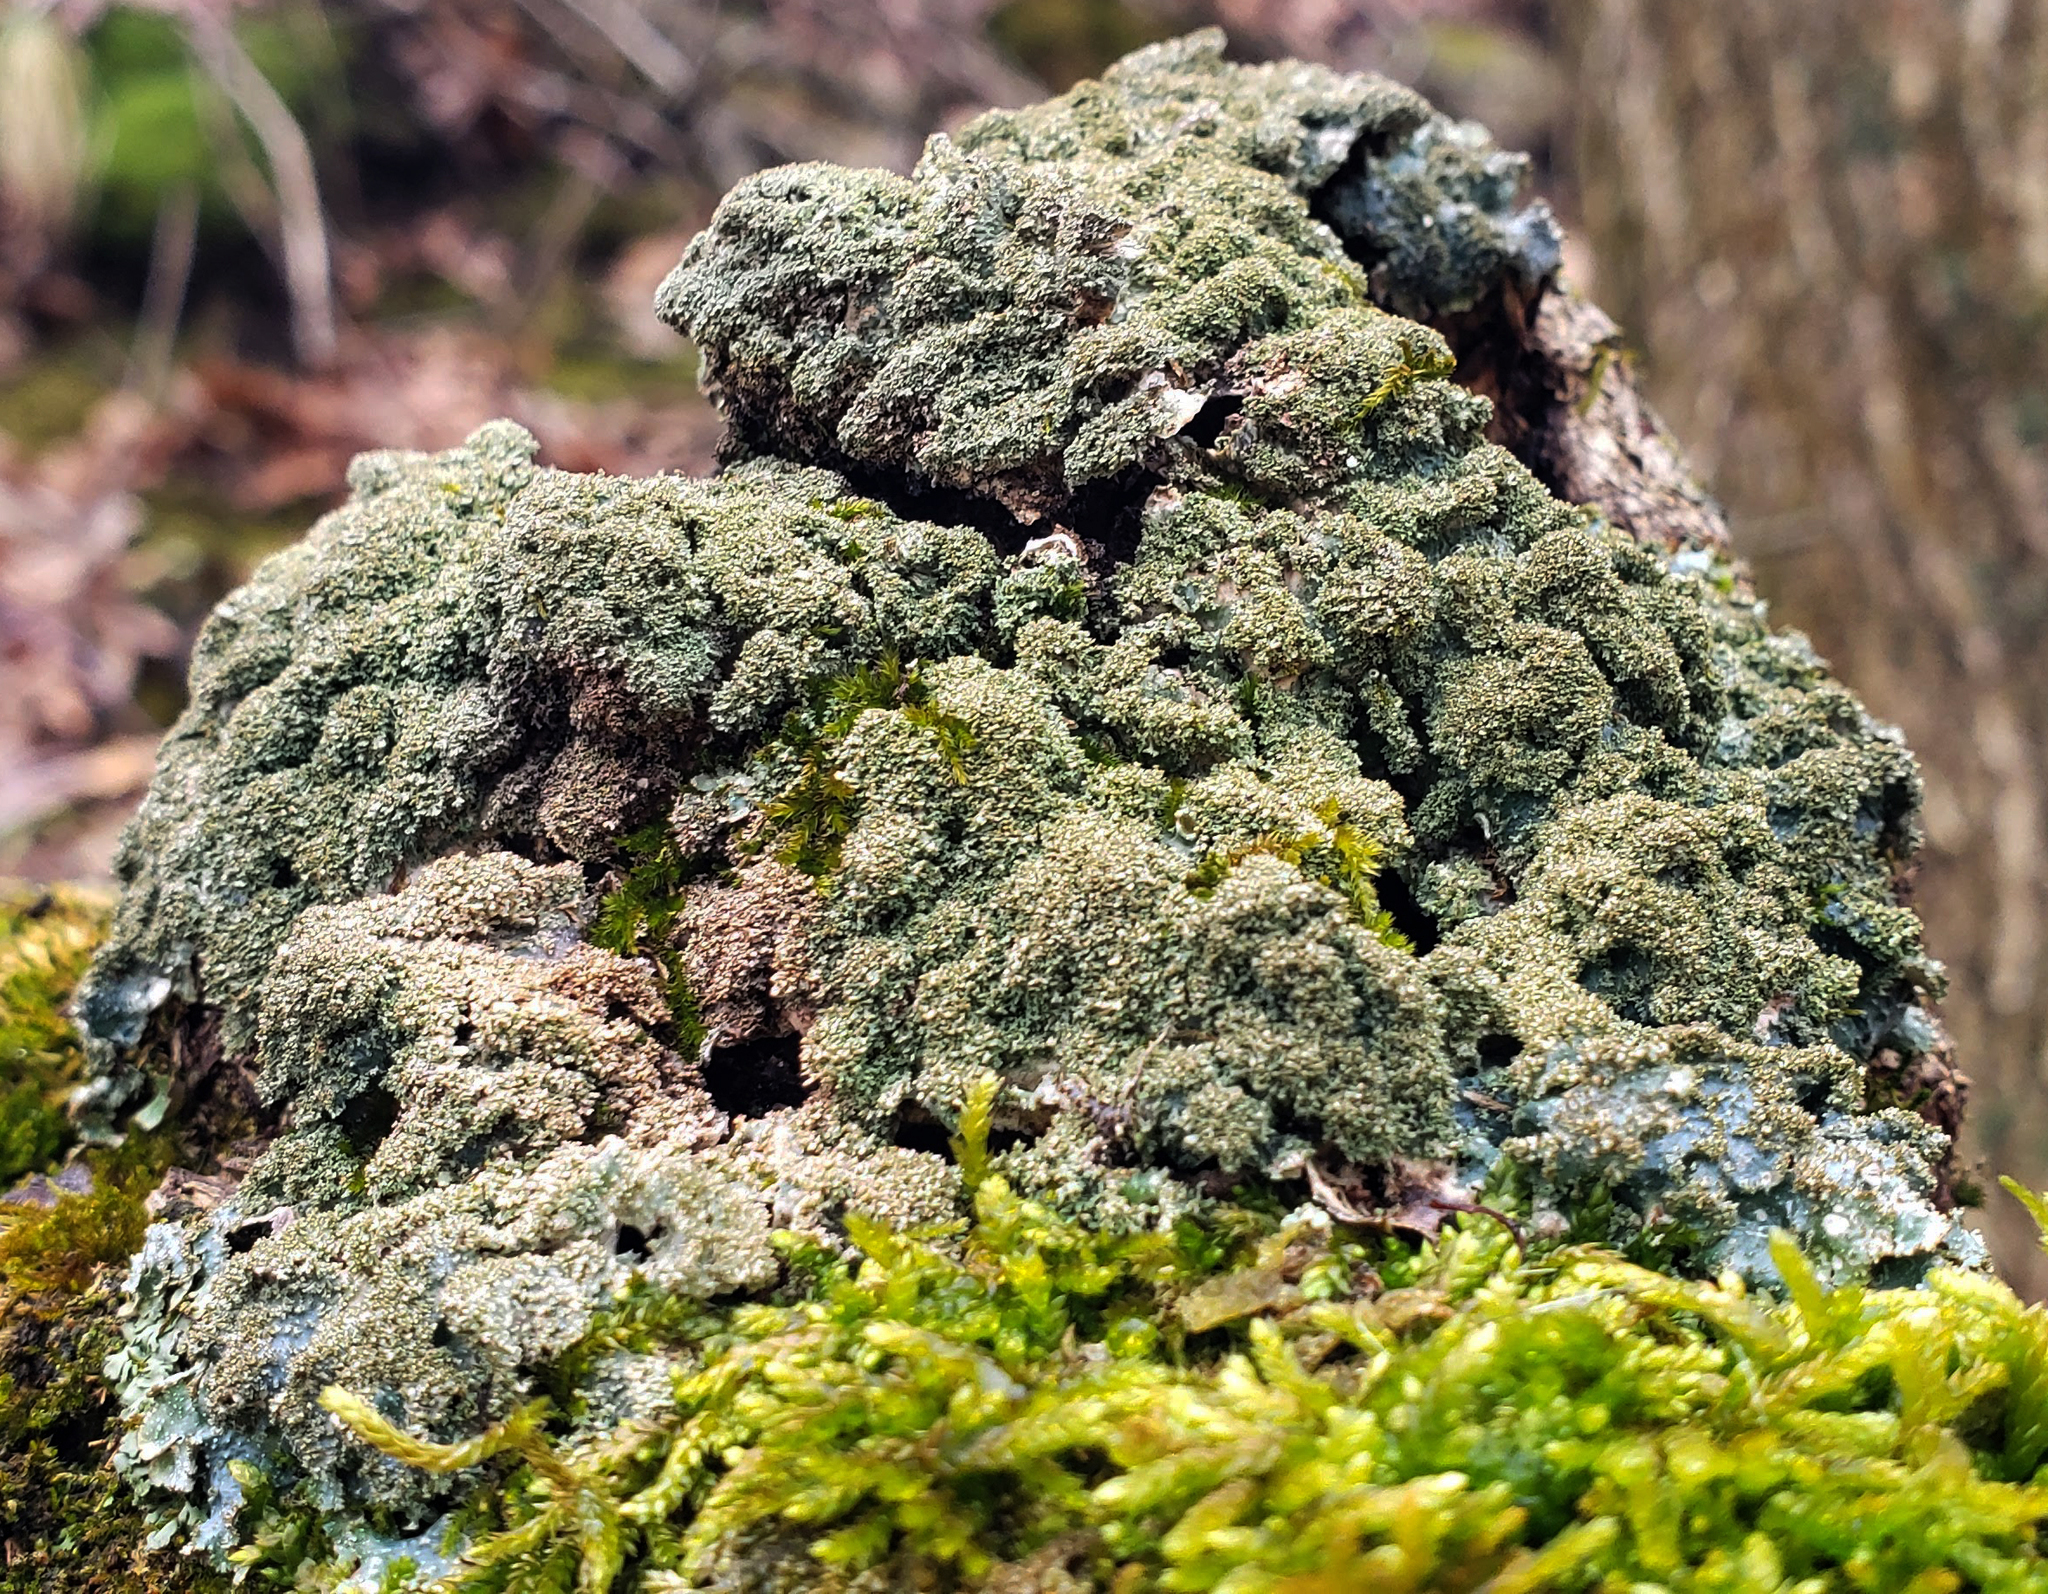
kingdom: Fungi
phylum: Ascomycota
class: Lecanoromycetes
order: Lecanorales
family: Parmeliaceae
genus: Punctelia
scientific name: Punctelia rudecta
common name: Rough speckled shield lichen
